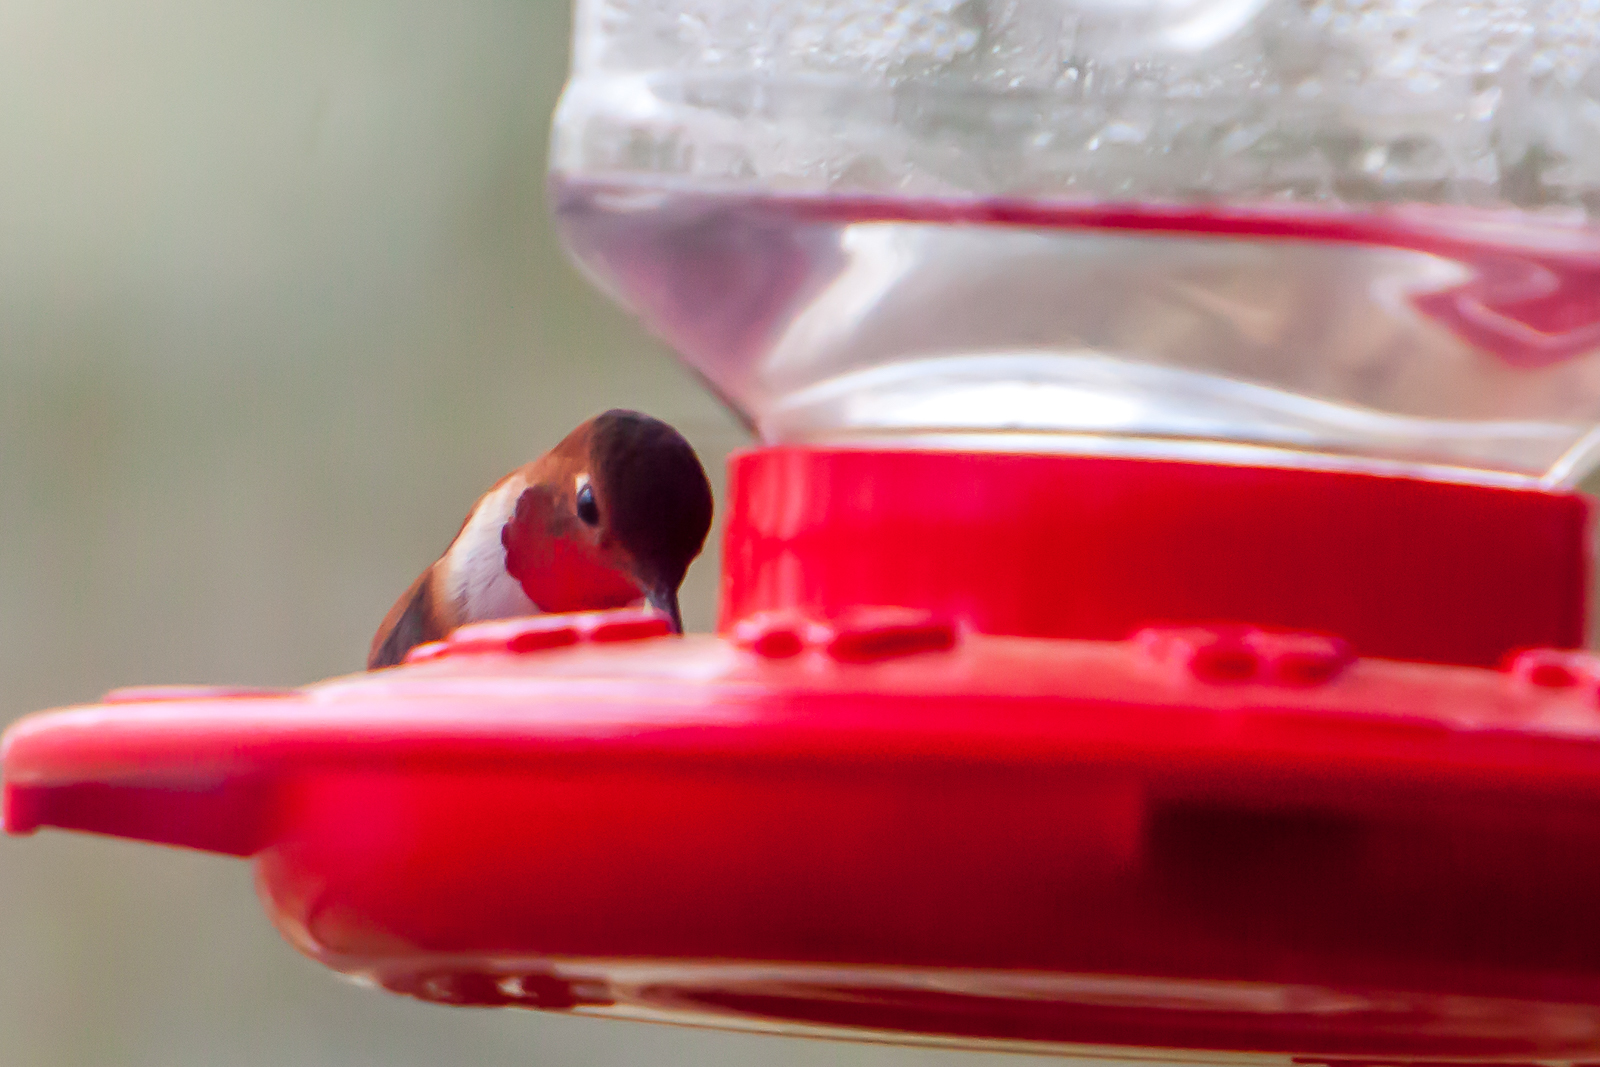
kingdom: Animalia
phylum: Chordata
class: Aves
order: Apodiformes
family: Trochilidae
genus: Selasphorus
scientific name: Selasphorus sasin
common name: Allen's hummingbird
